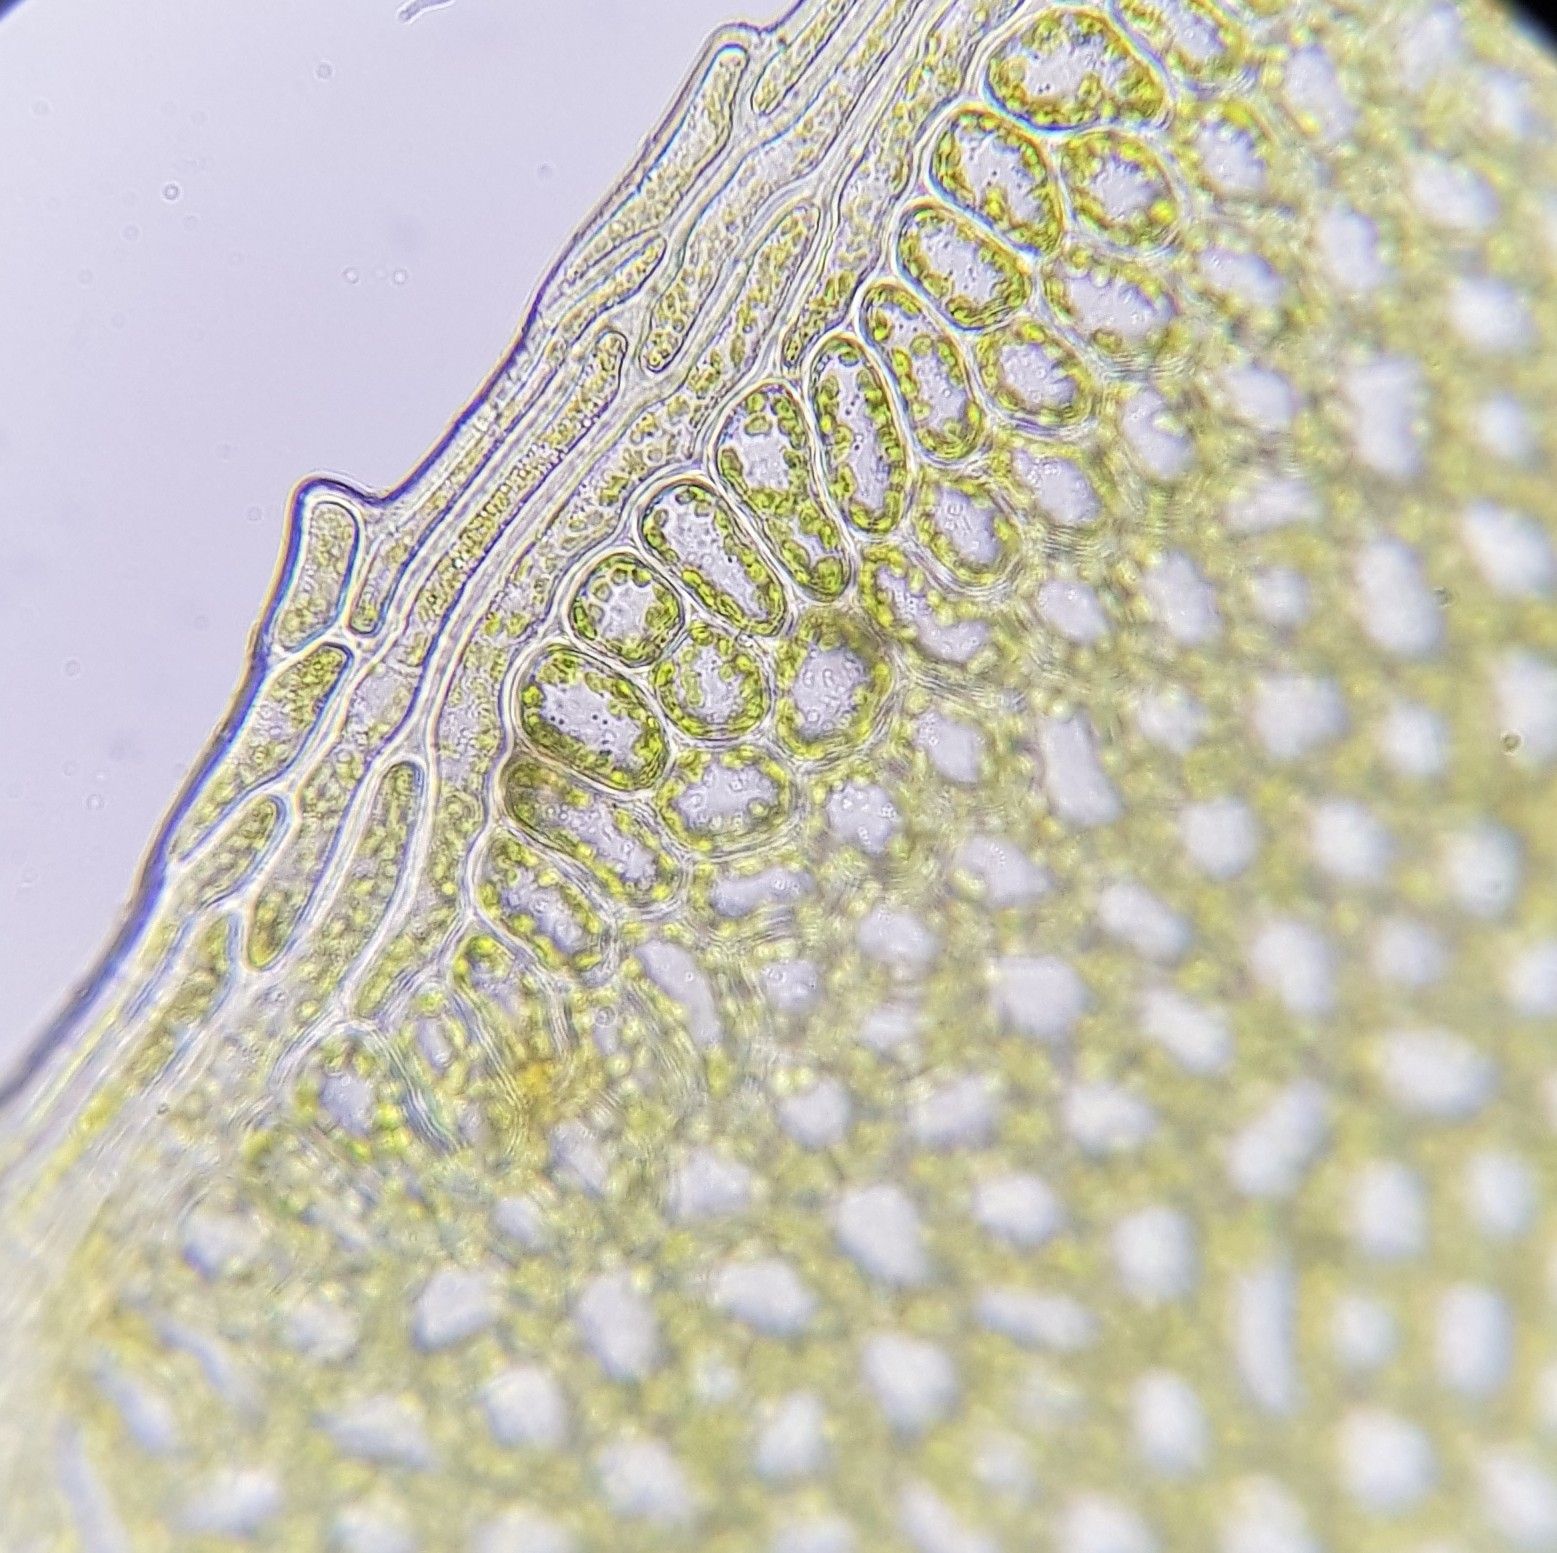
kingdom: Plantae
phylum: Bryophyta
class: Bryopsida
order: Bryales
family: Mniaceae
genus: Plagiomnium
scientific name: Plagiomnium rostratum
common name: Long-beaked leafy moss
